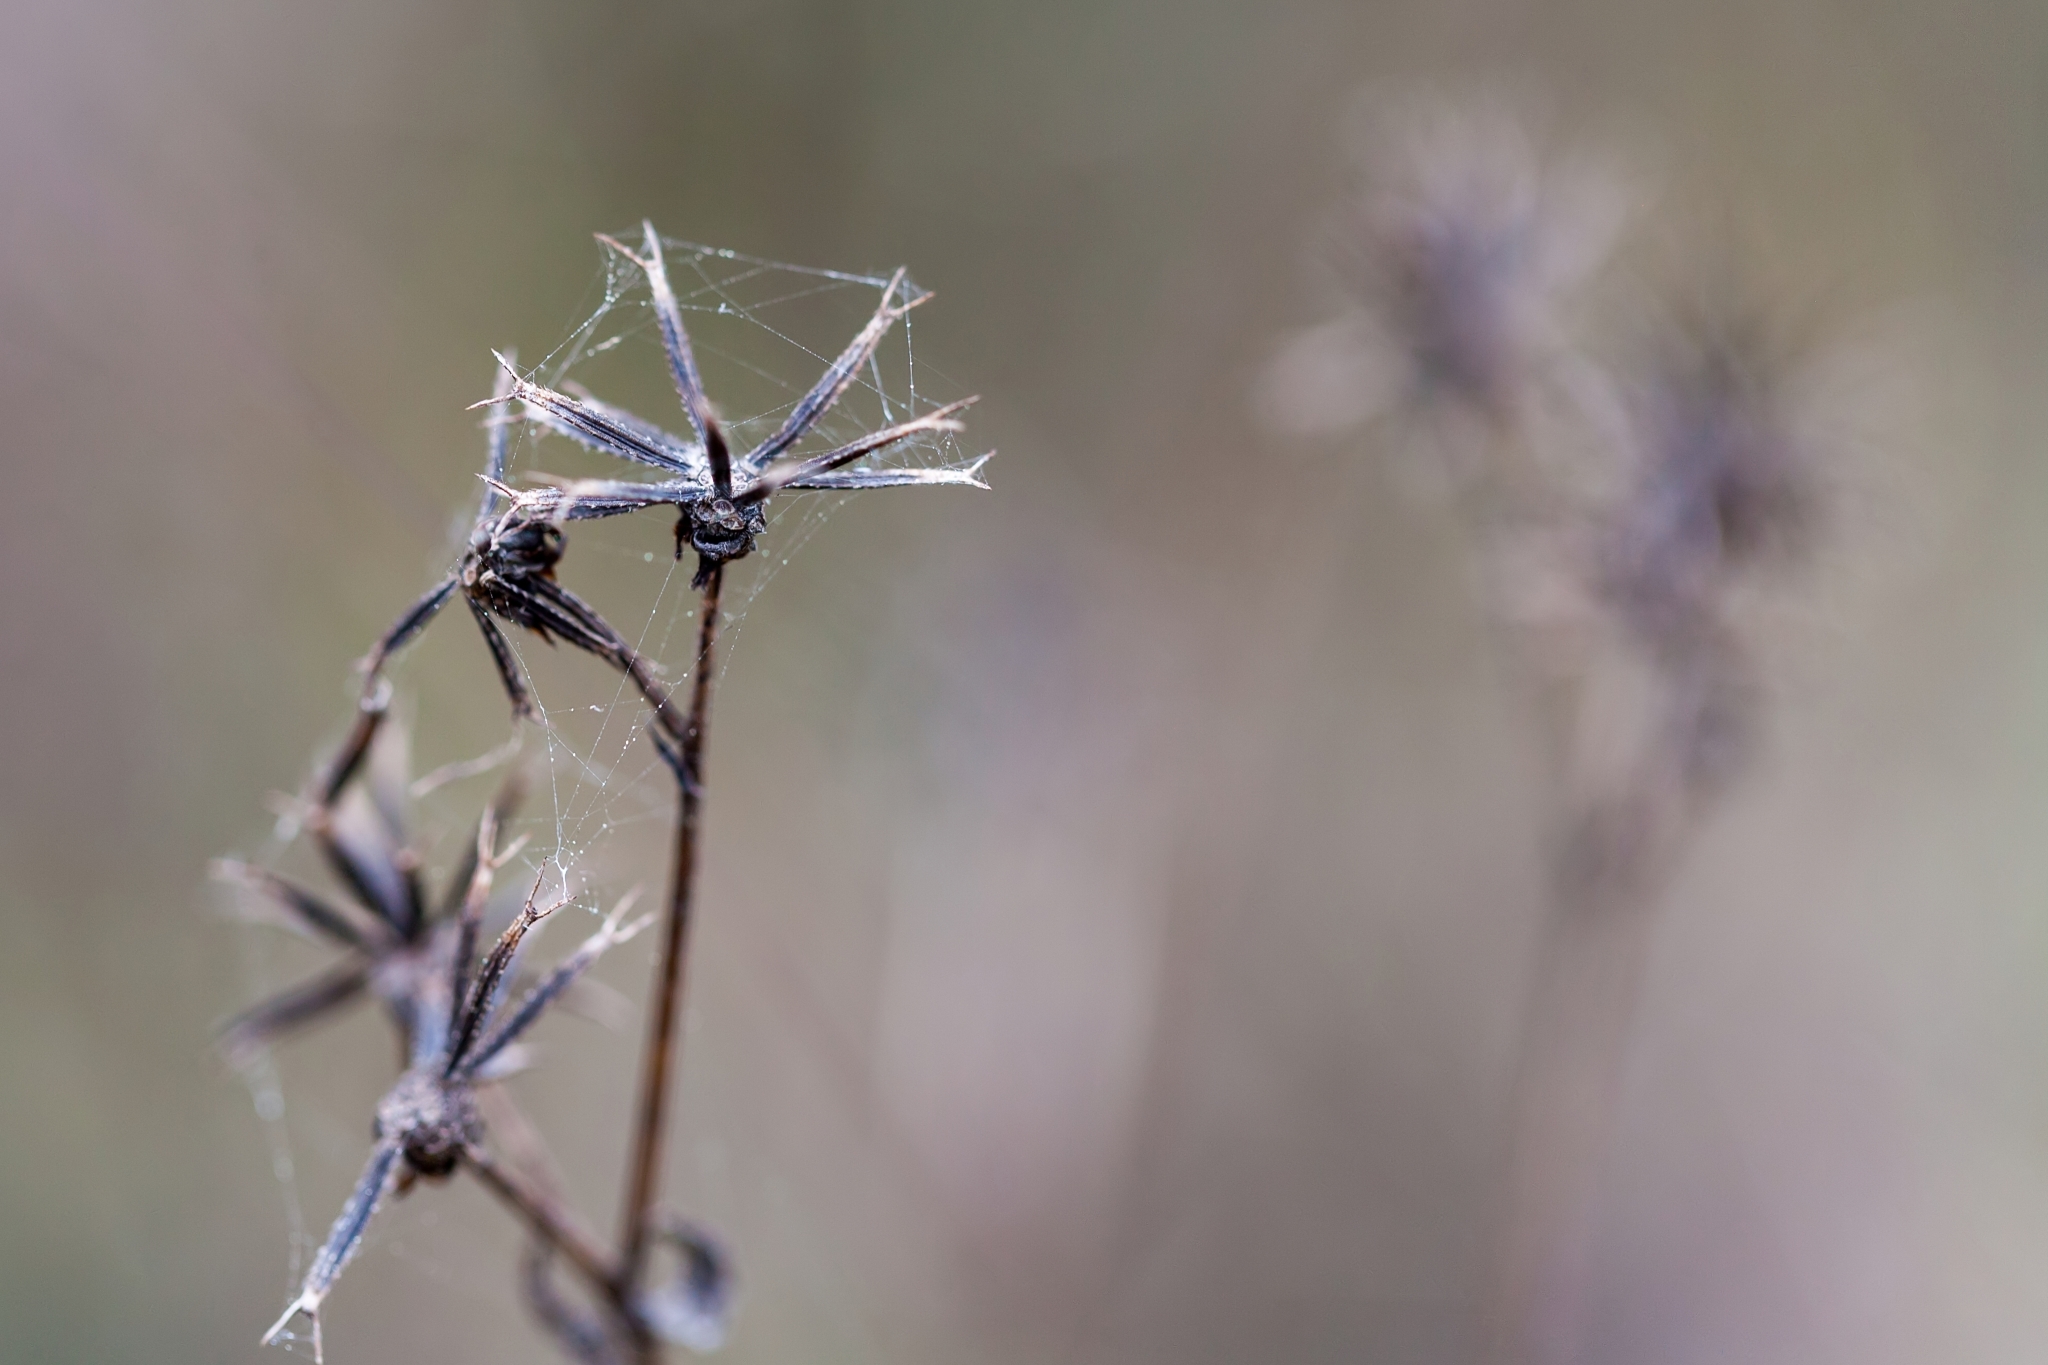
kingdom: Plantae
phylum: Tracheophyta
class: Magnoliopsida
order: Asterales
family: Asteraceae
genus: Bidens
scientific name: Bidens alba
